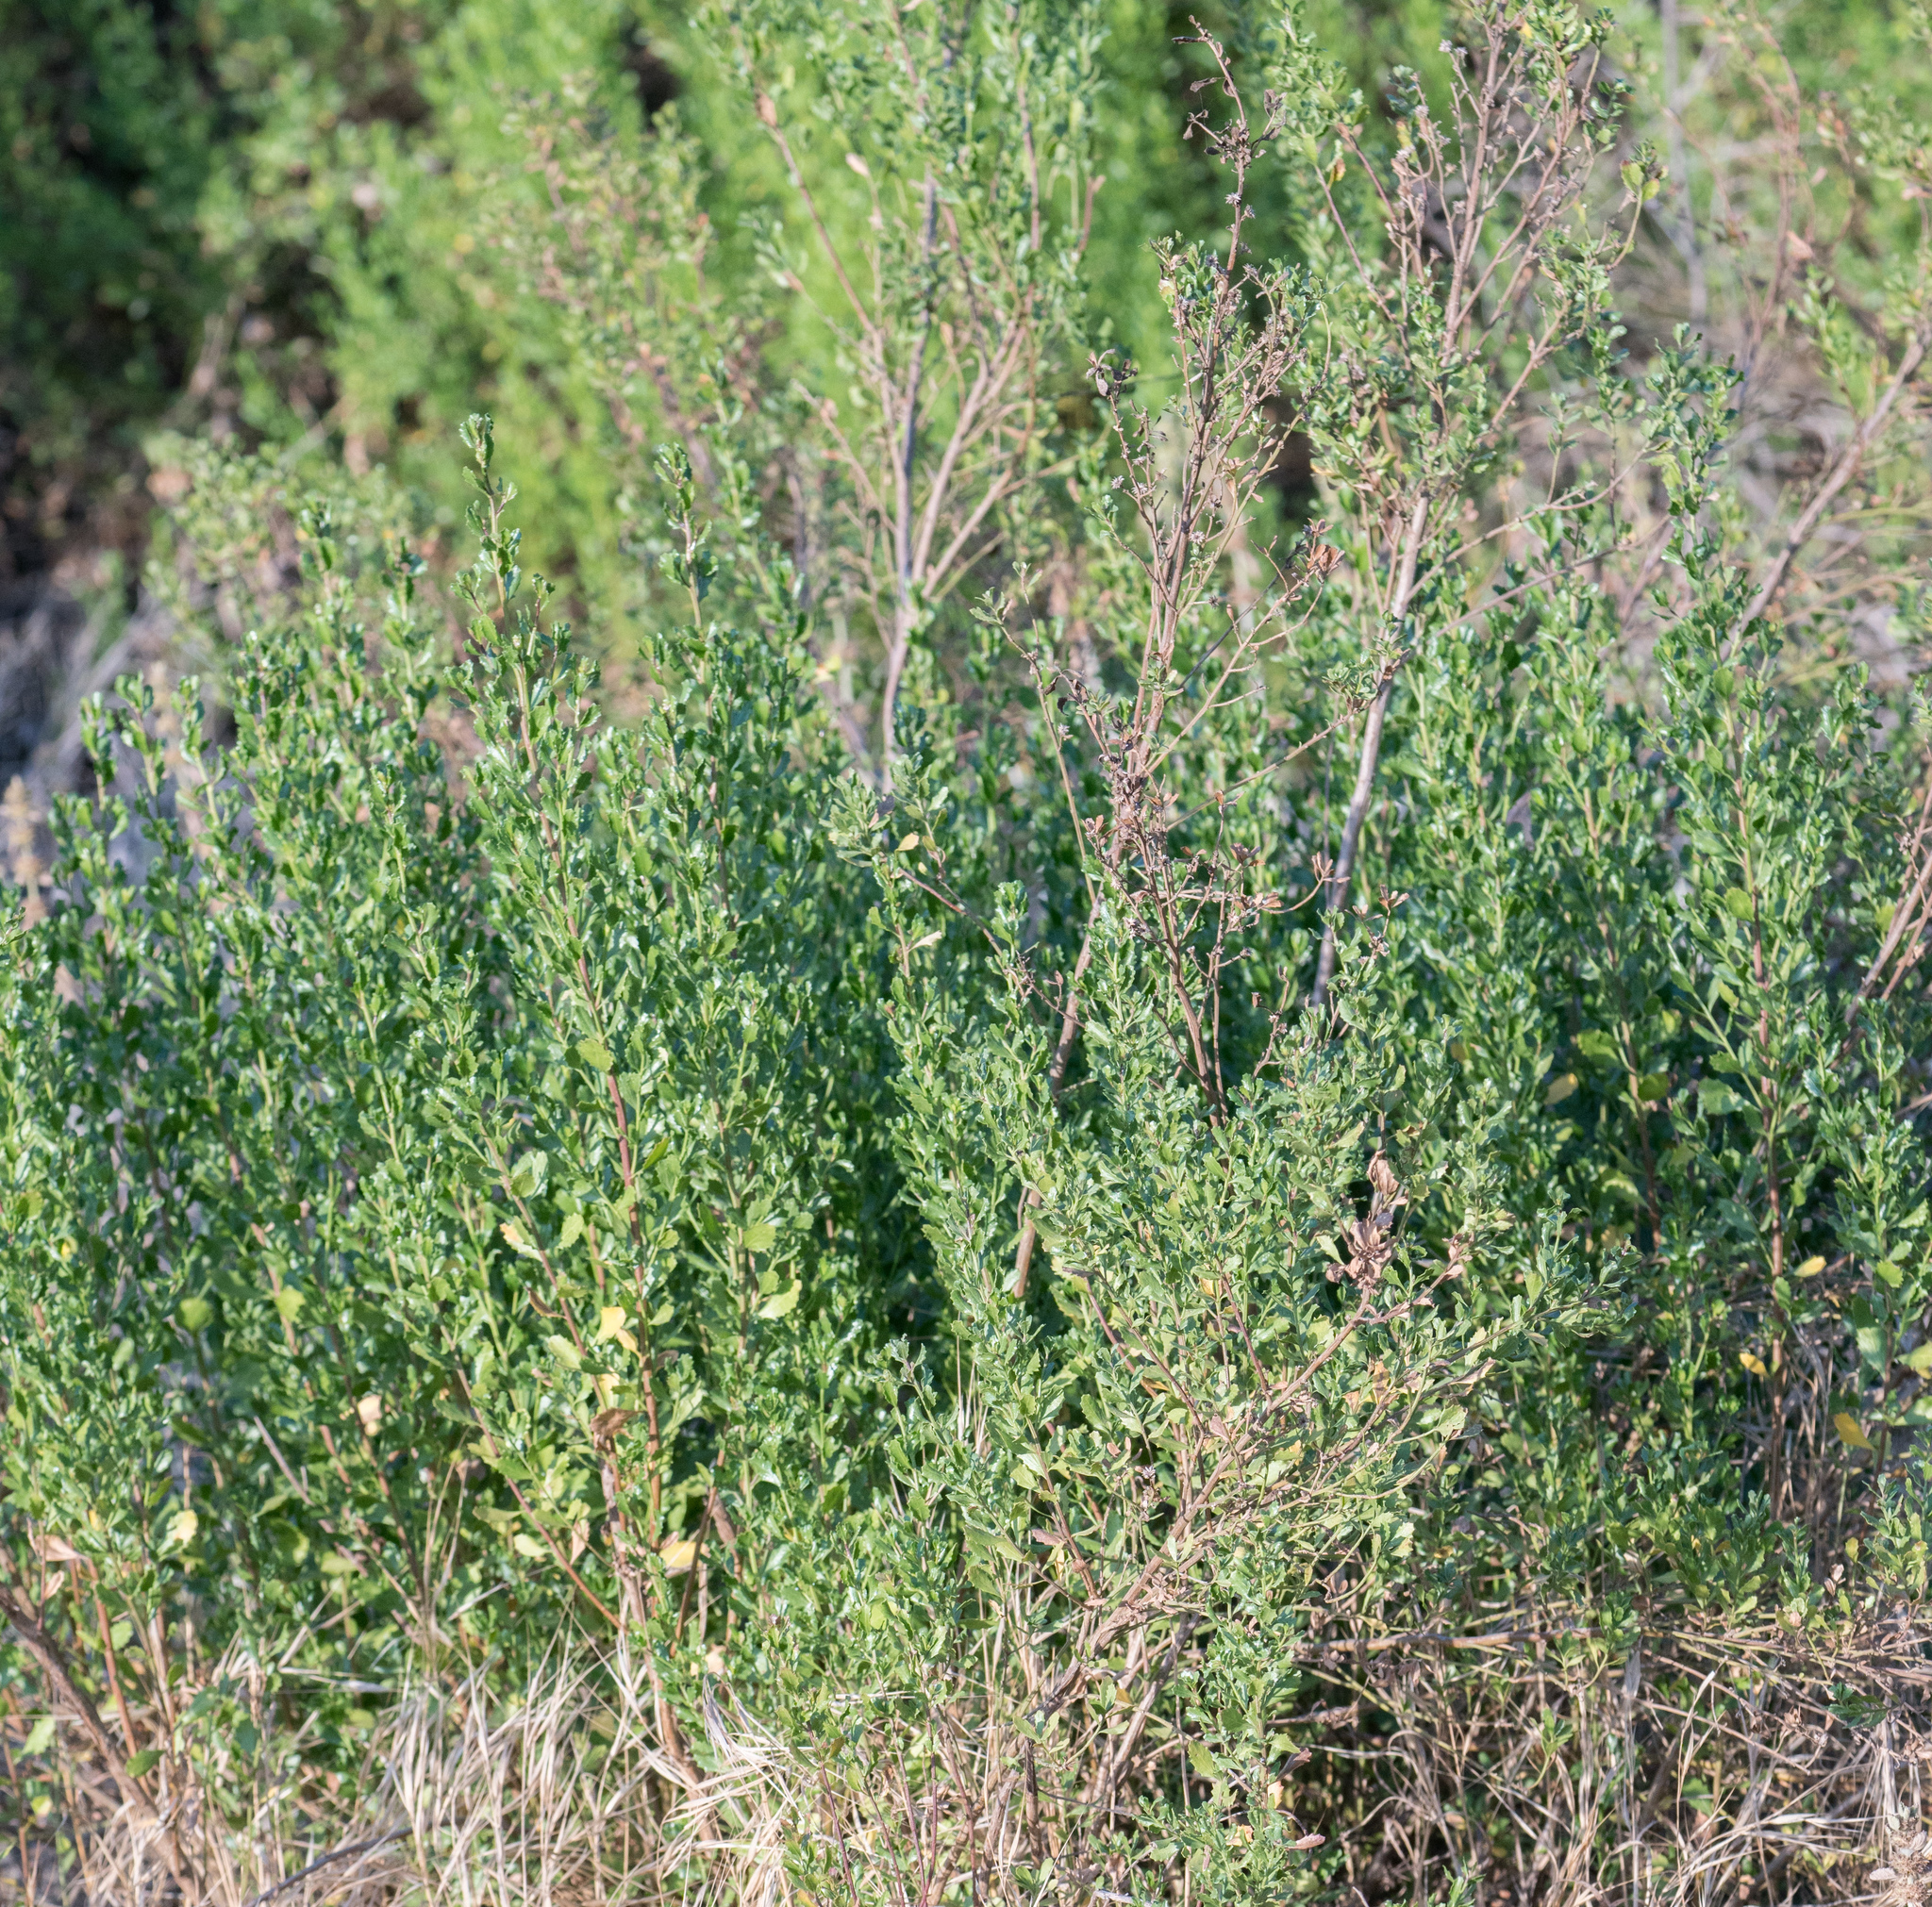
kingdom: Plantae
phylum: Tracheophyta
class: Magnoliopsida
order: Asterales
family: Asteraceae
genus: Baccharis
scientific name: Baccharis pilularis
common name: Coyotebrush
